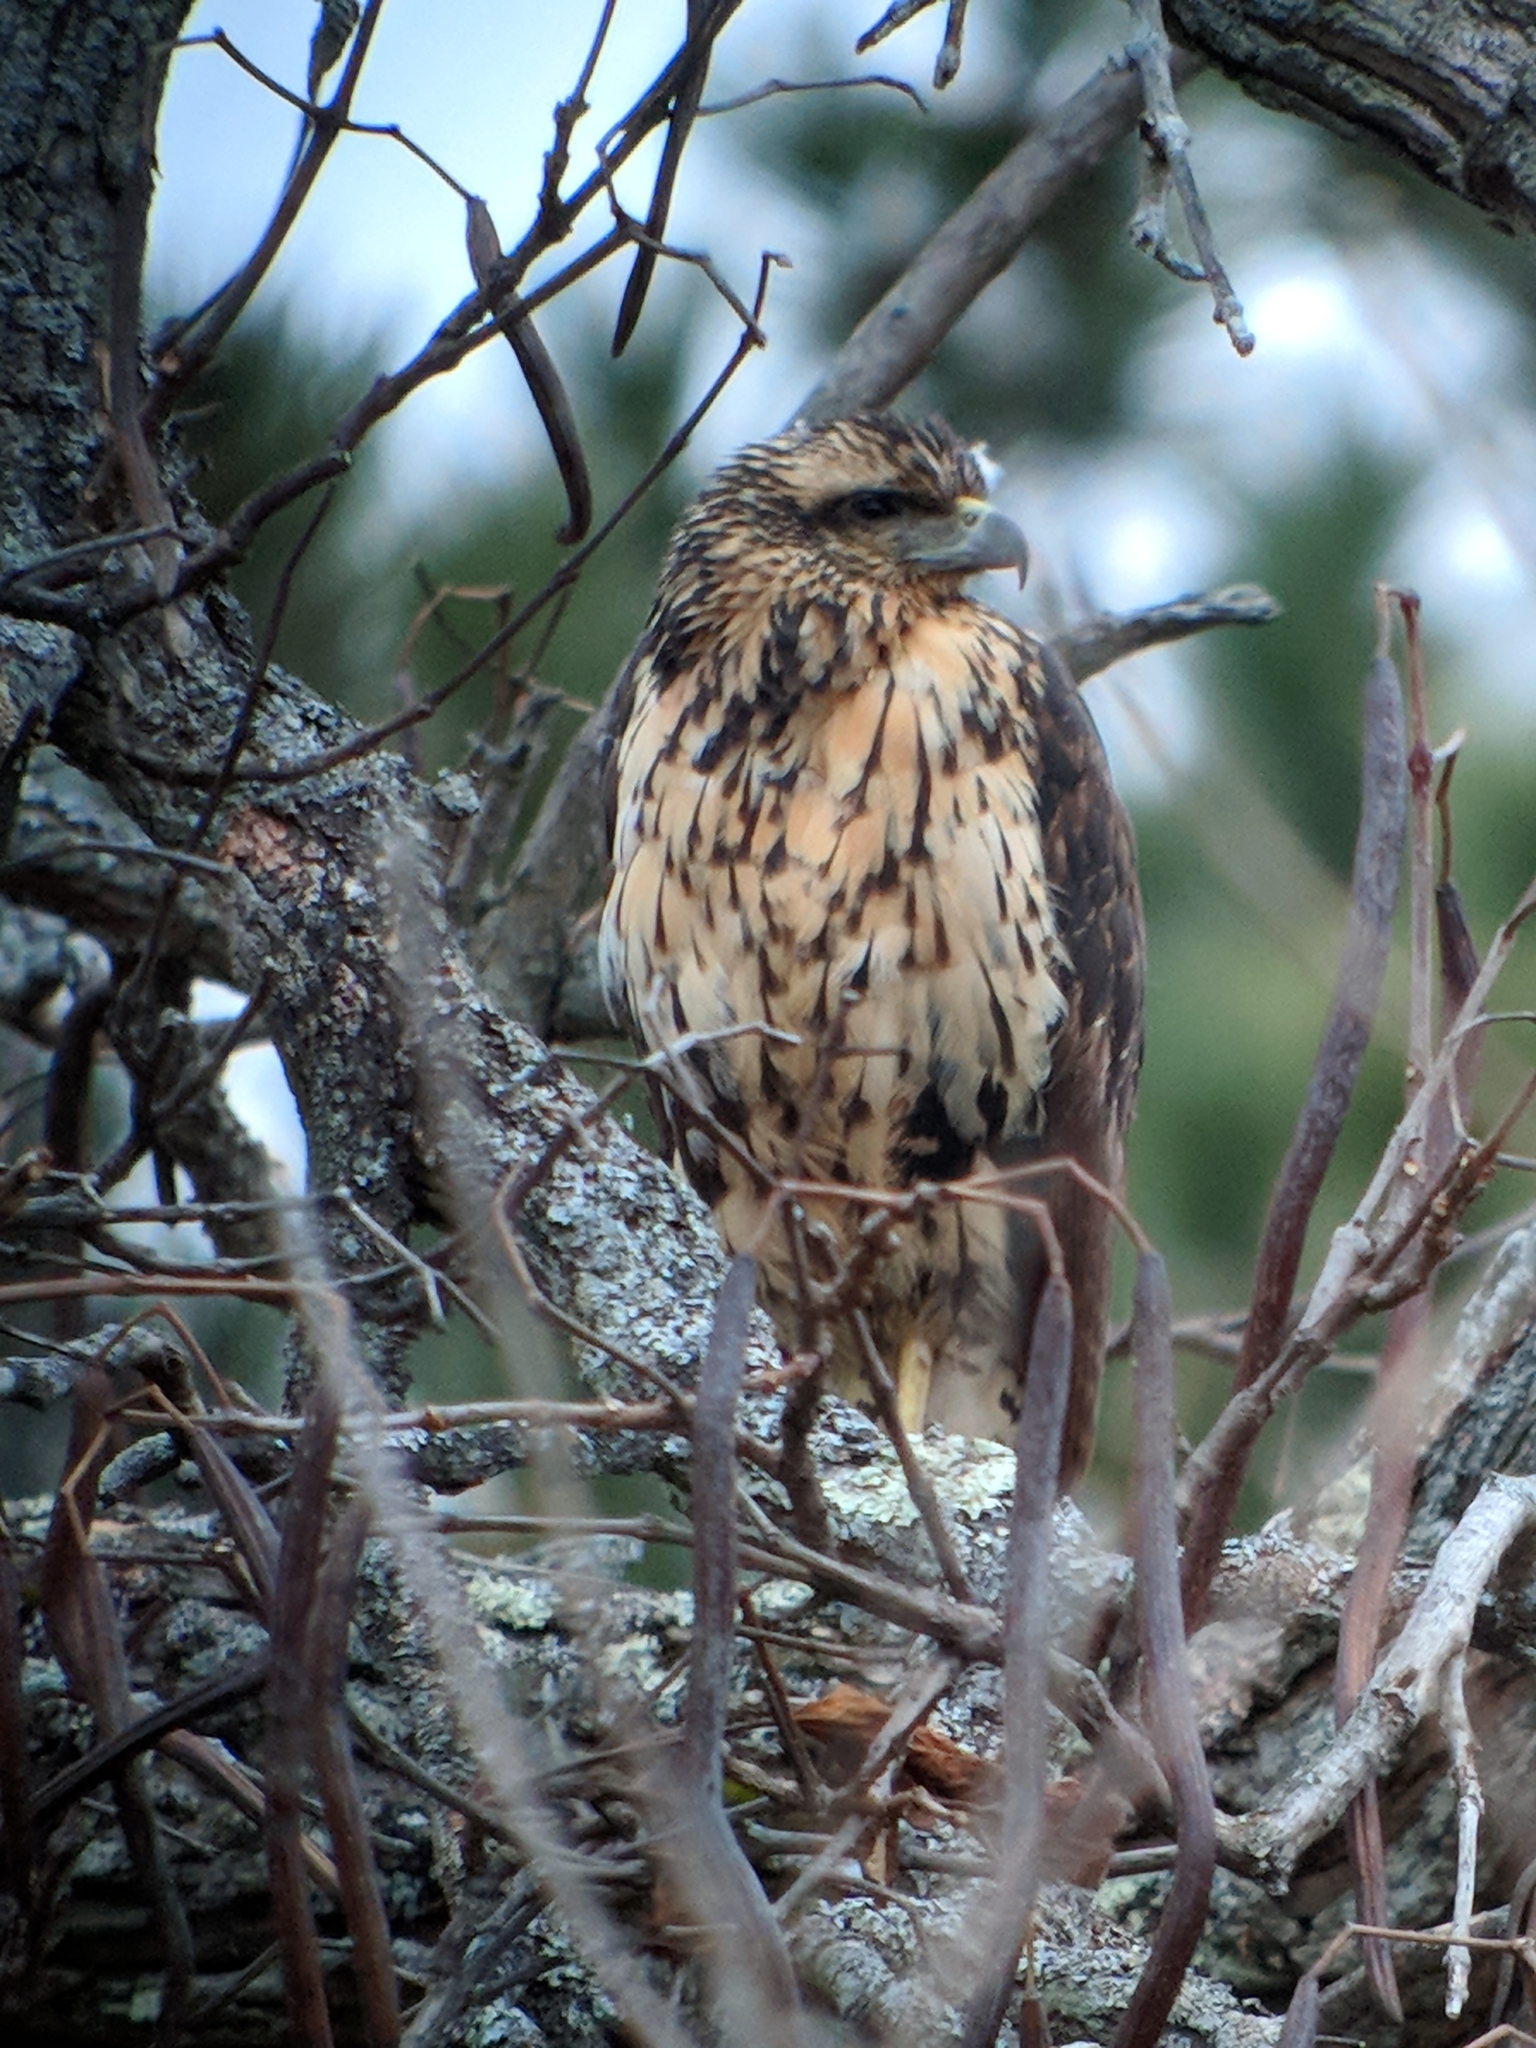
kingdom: Animalia
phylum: Chordata
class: Aves
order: Accipitriformes
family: Accipitridae
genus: Buteogallus
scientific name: Buteogallus urubitinga
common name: Great black hawk
